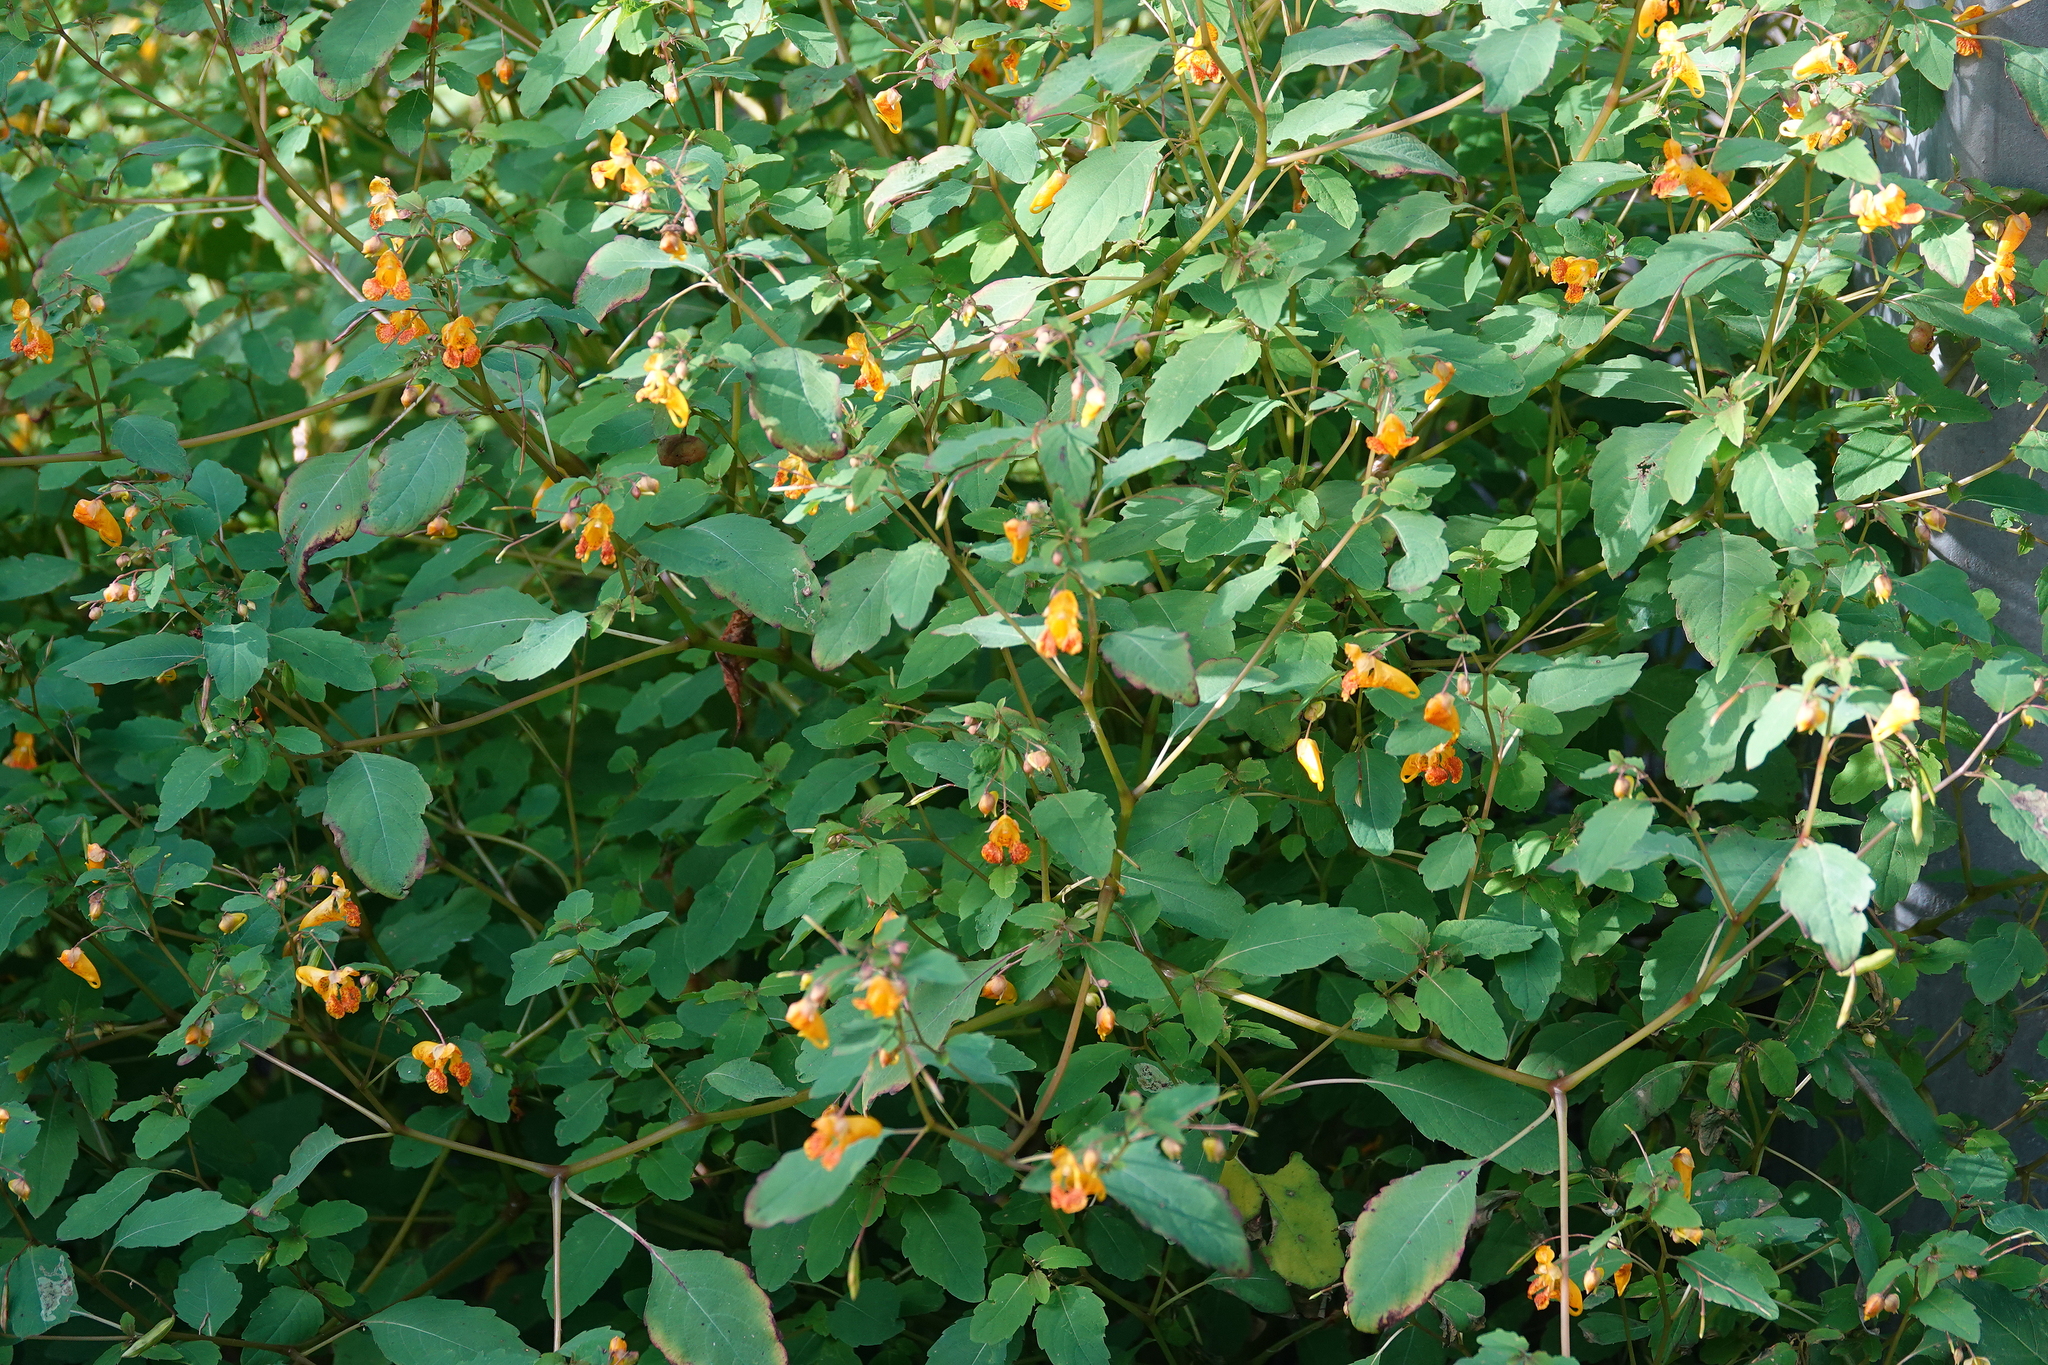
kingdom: Plantae
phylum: Tracheophyta
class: Magnoliopsida
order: Ericales
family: Balsaminaceae
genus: Impatiens
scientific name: Impatiens capensis
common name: Orange balsam
